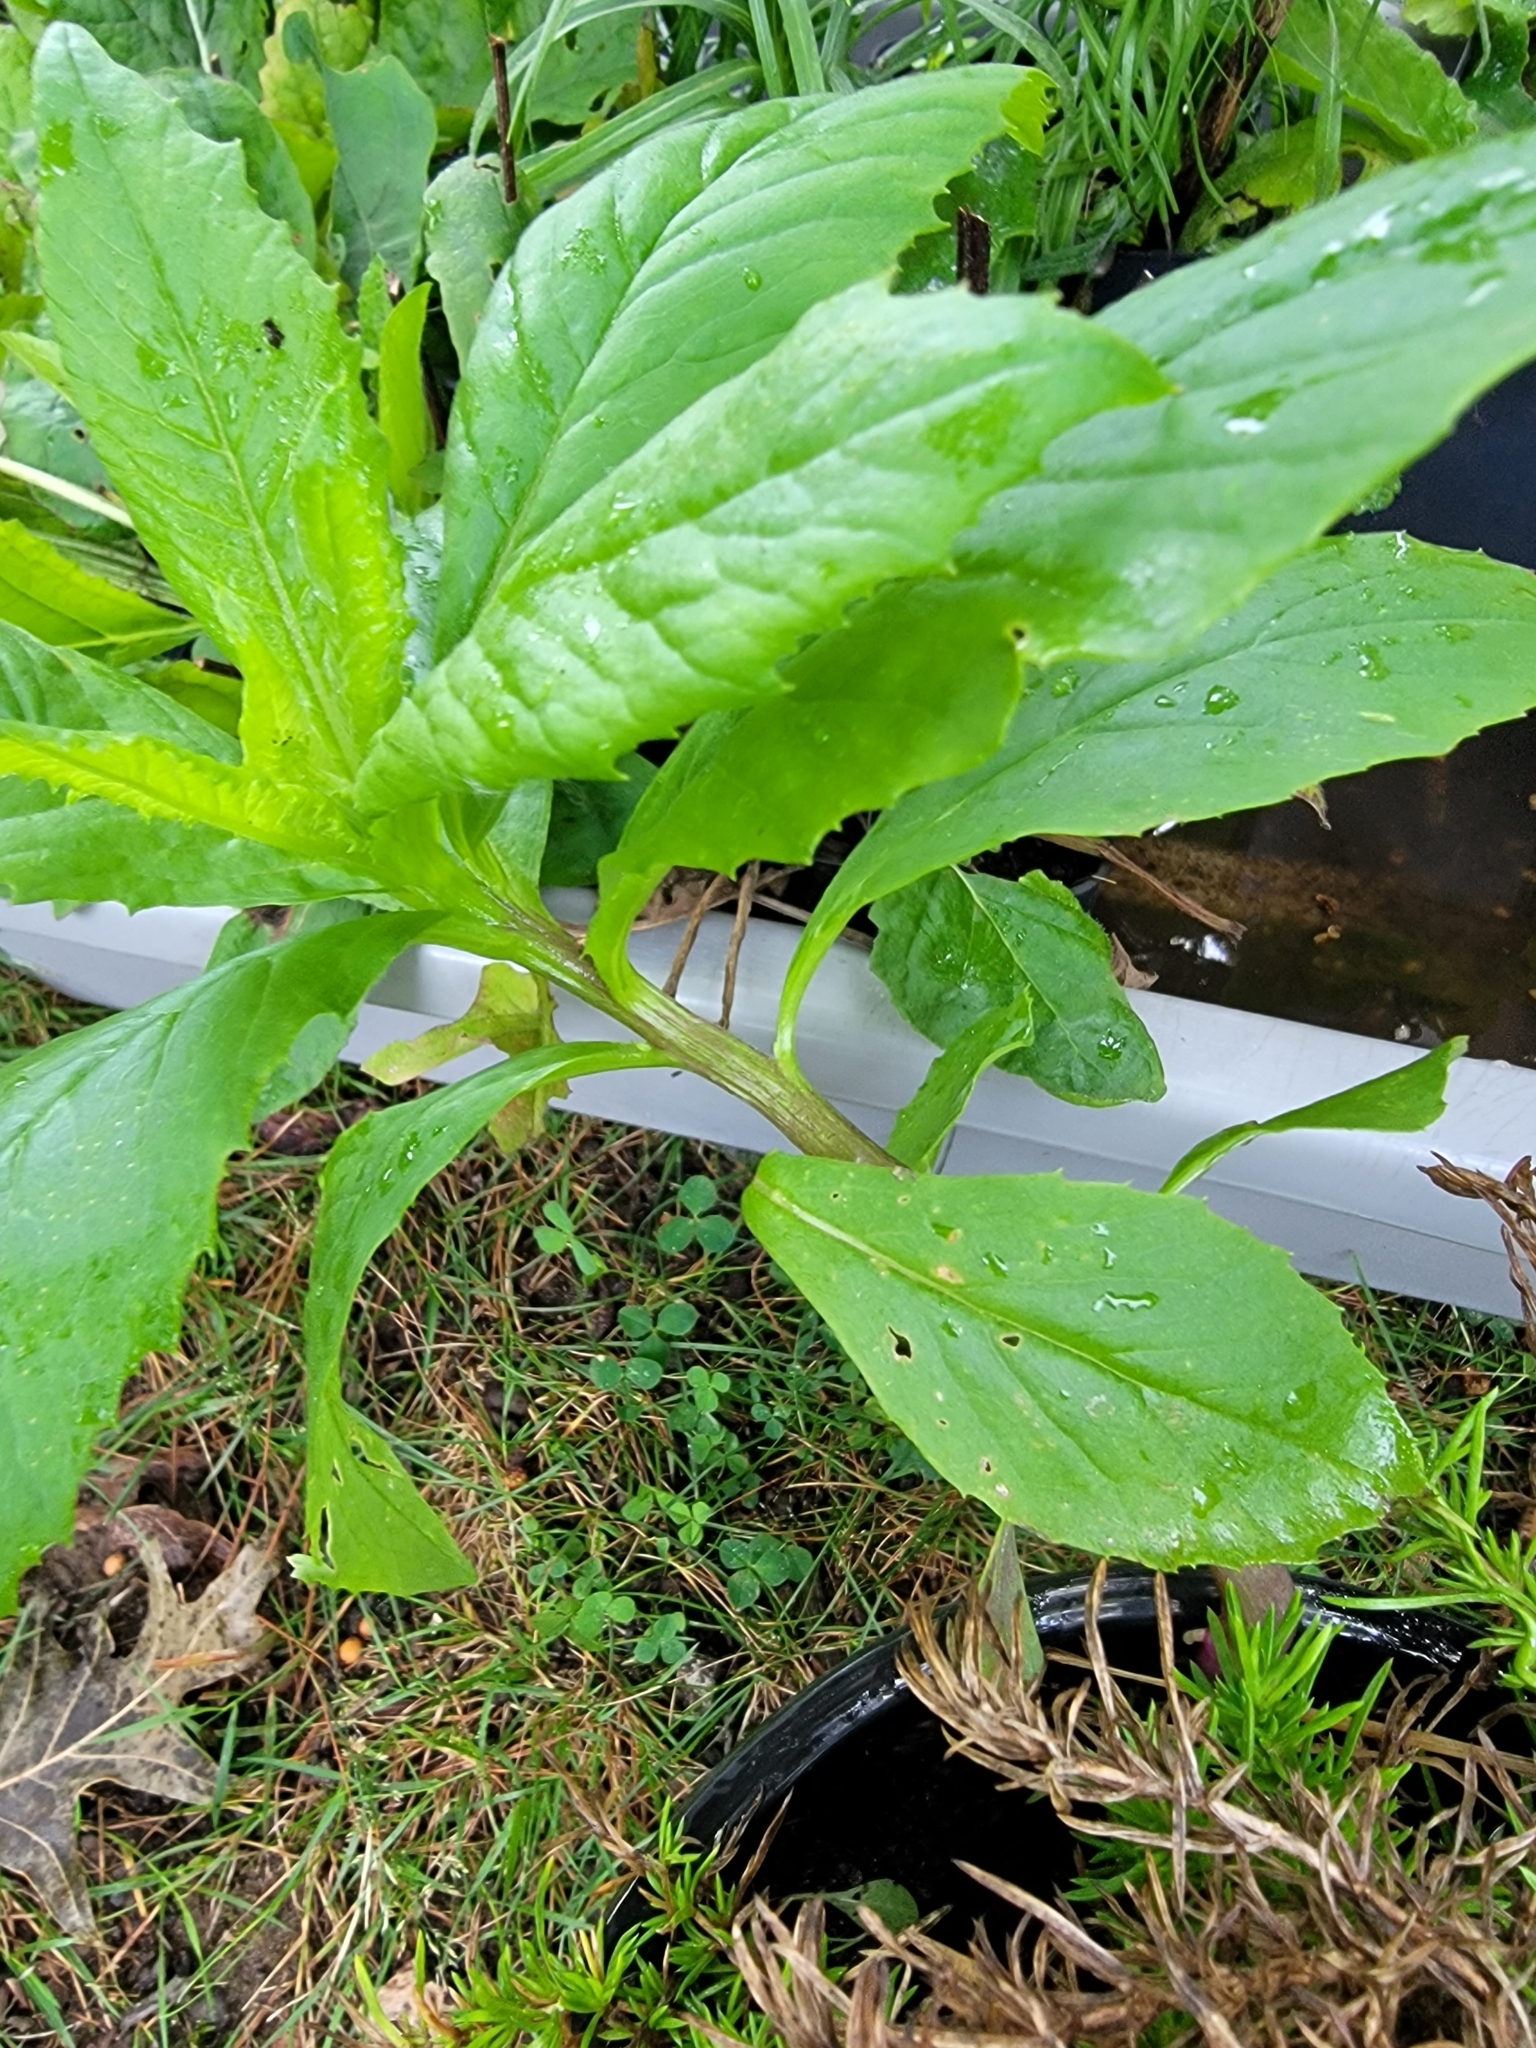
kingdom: Plantae
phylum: Tracheophyta
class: Magnoliopsida
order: Asterales
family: Asteraceae
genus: Erechtites
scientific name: Erechtites hieraciifolius
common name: American burnweed
